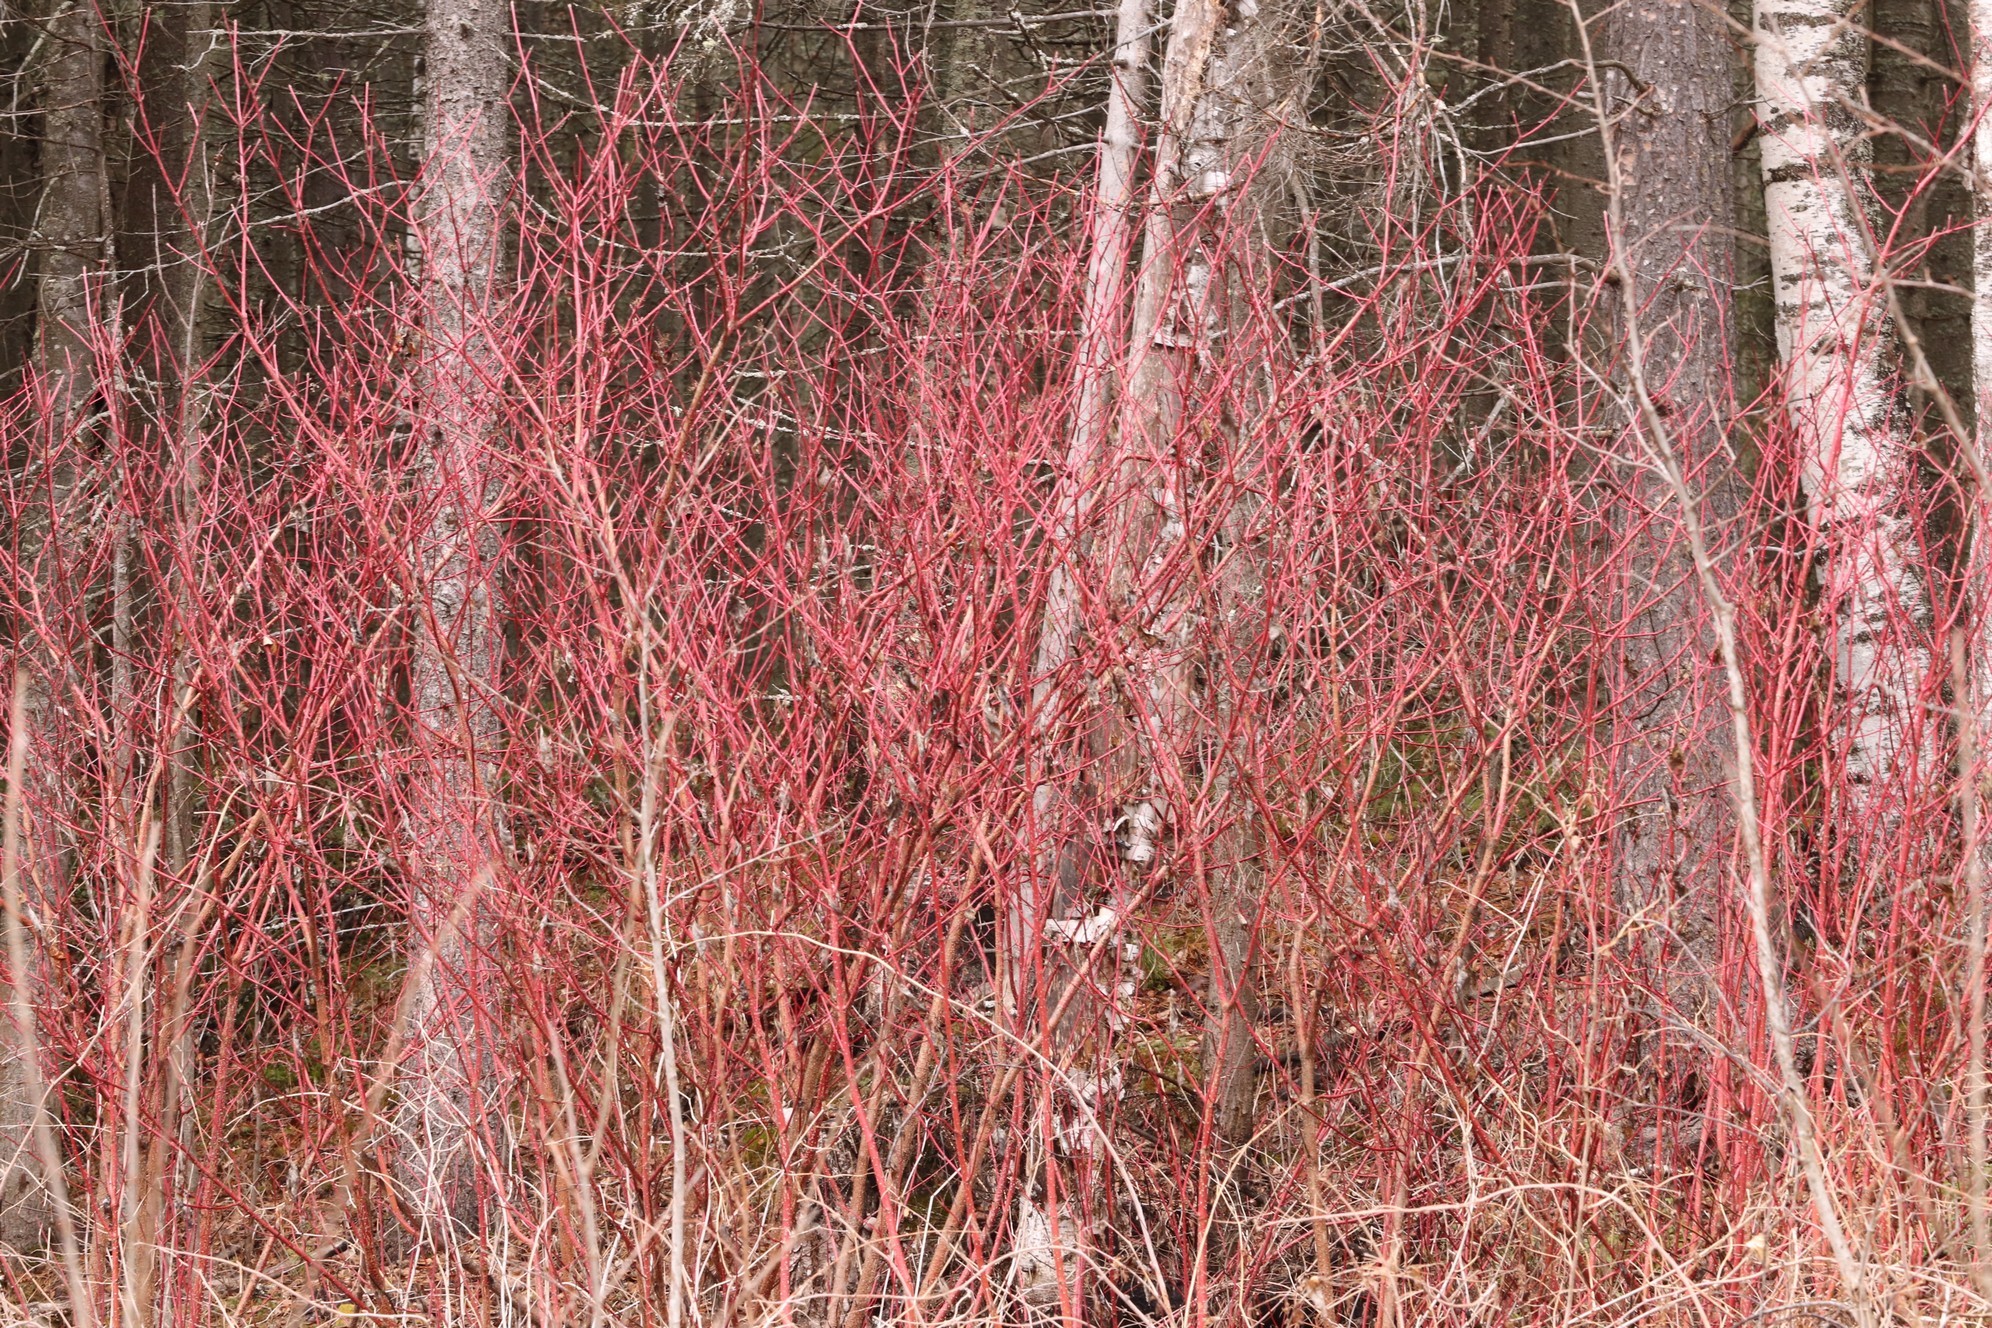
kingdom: Plantae
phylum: Tracheophyta
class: Magnoliopsida
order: Cornales
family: Cornaceae
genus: Cornus
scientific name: Cornus alba
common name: White dogwood
